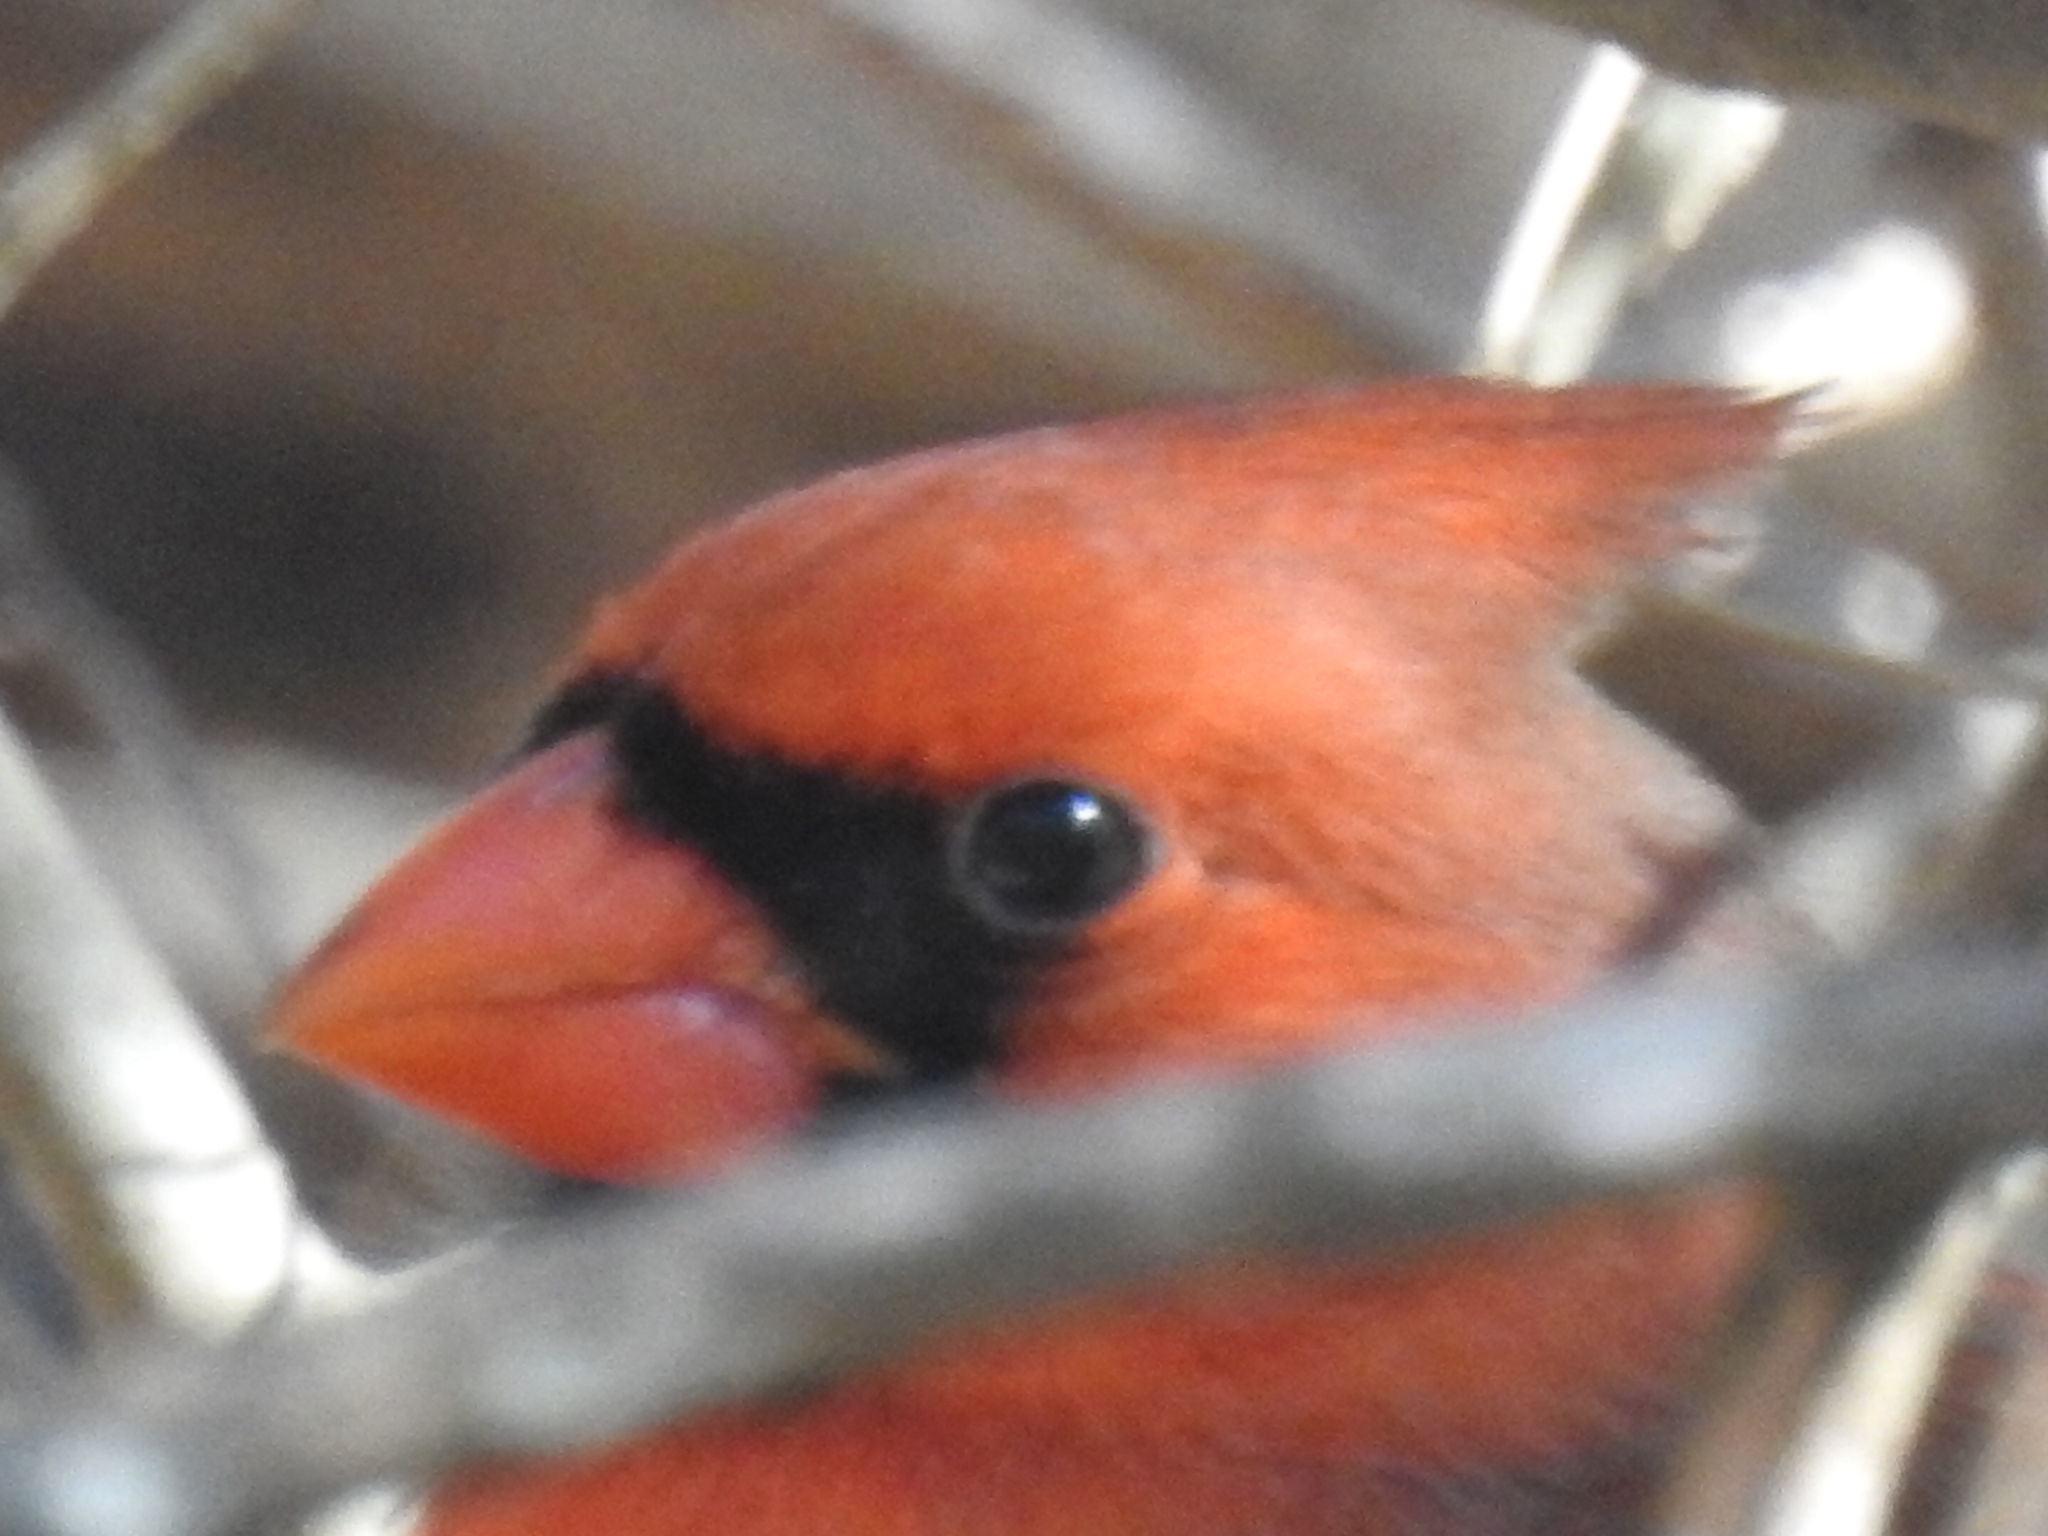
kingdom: Animalia
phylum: Chordata
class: Aves
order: Passeriformes
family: Cardinalidae
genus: Cardinalis
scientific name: Cardinalis cardinalis
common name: Northern cardinal
